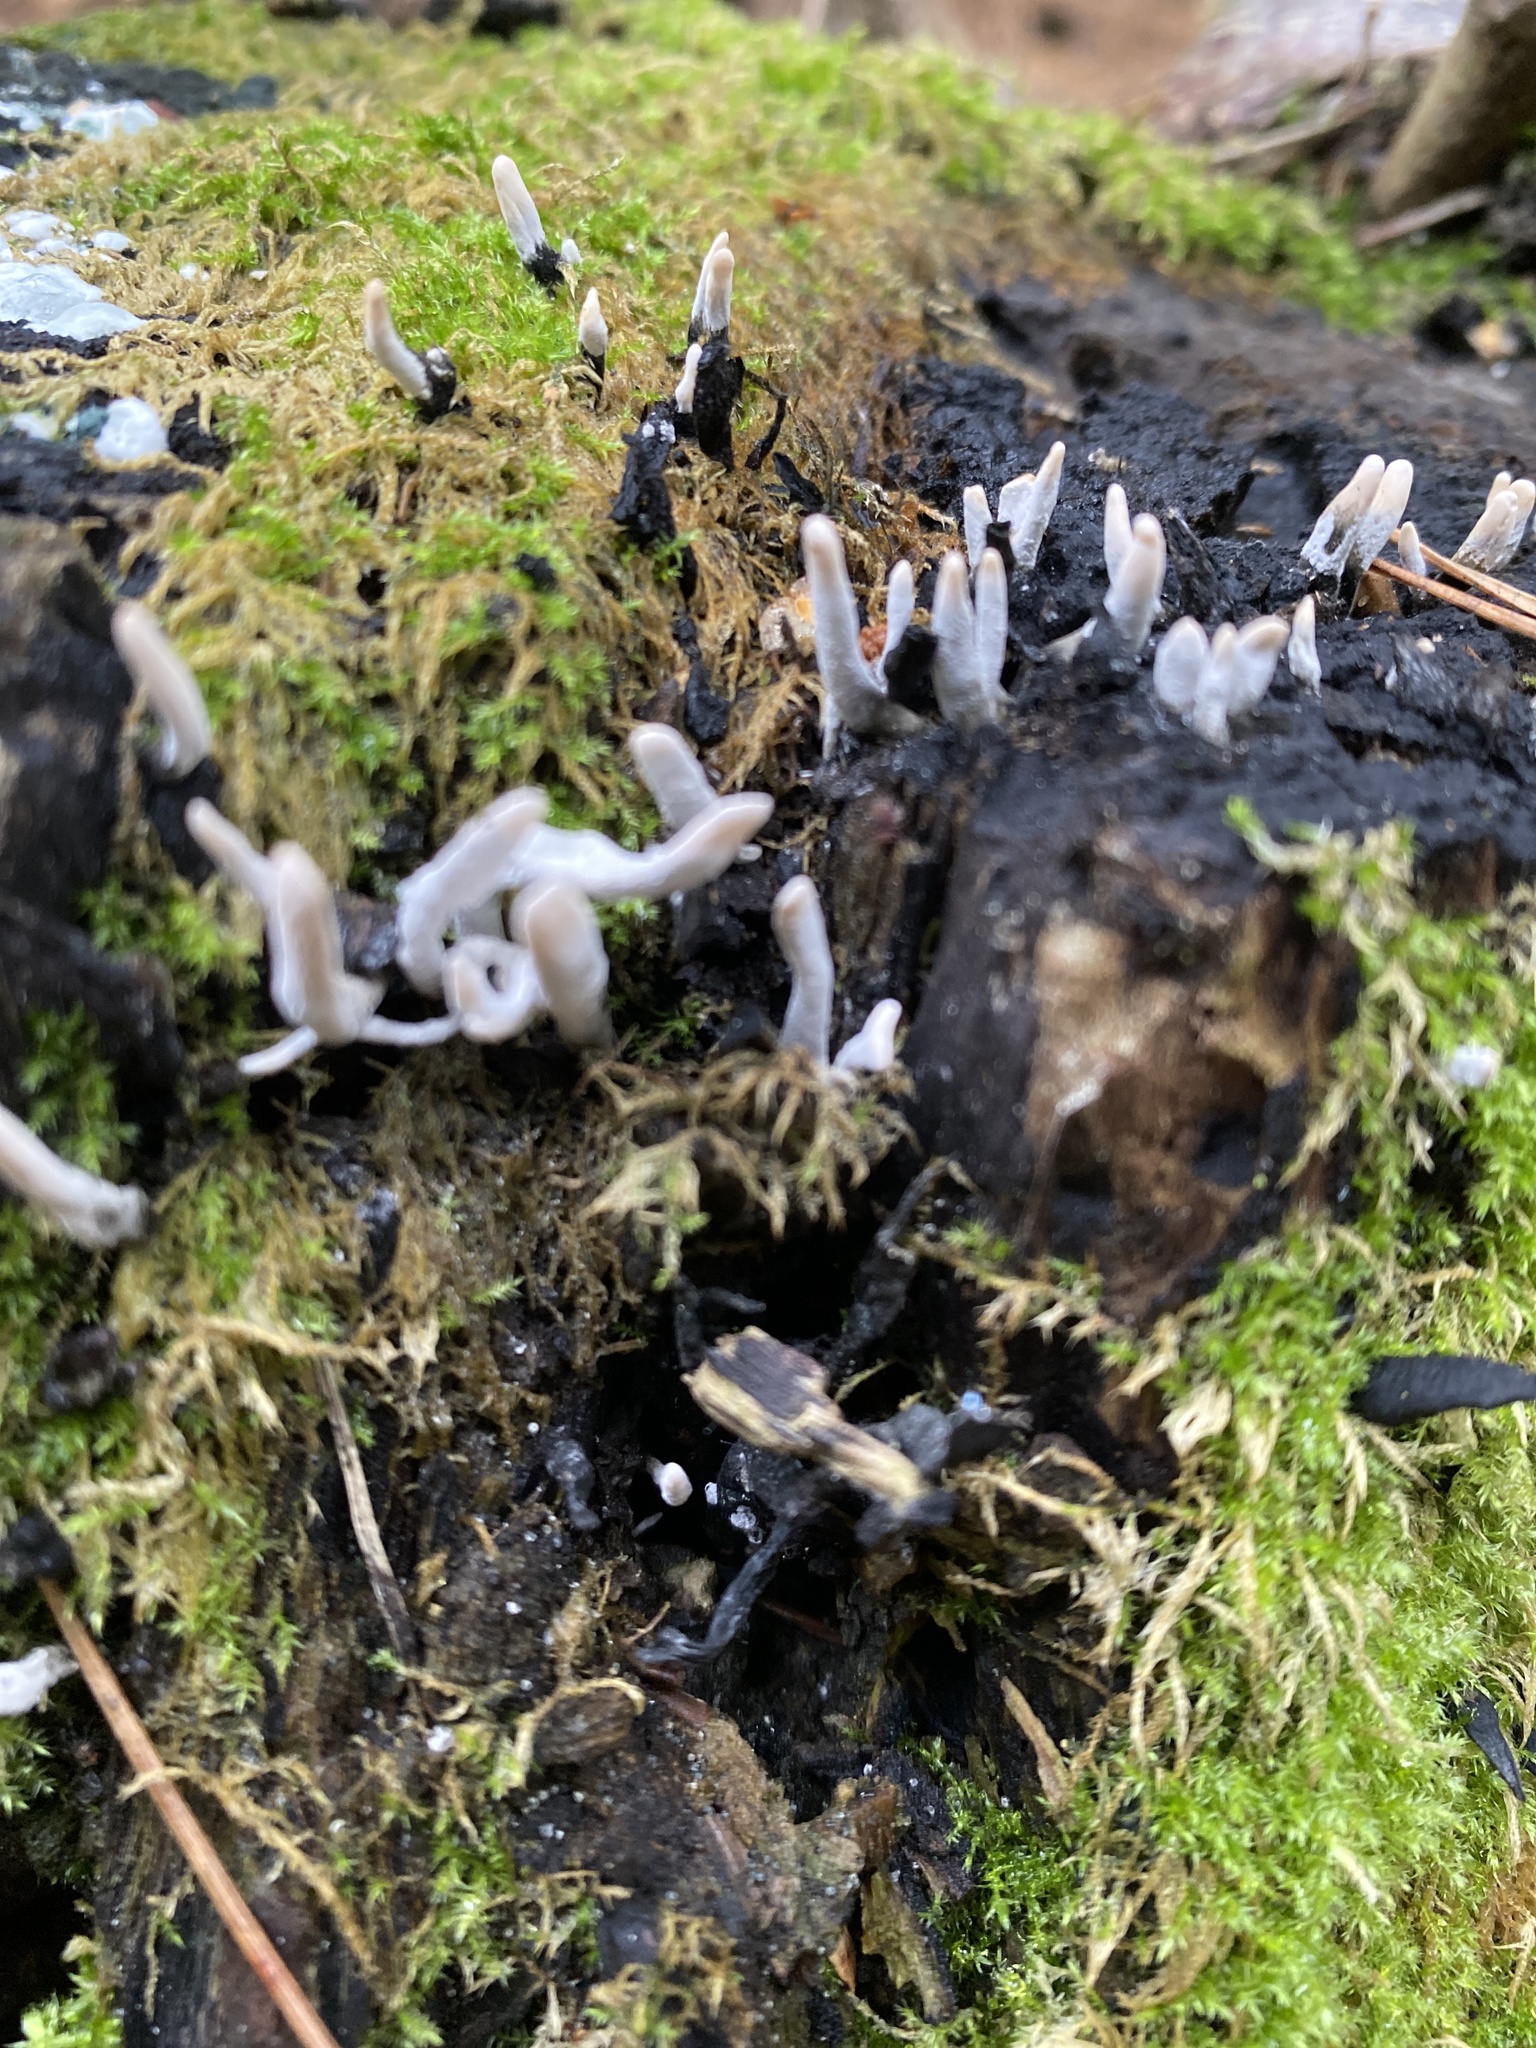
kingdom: Fungi
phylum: Ascomycota
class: Sordariomycetes
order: Xylariales
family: Xylariaceae
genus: Xylaria
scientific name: Xylaria hypoxylon
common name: Candle-snuff fungus
